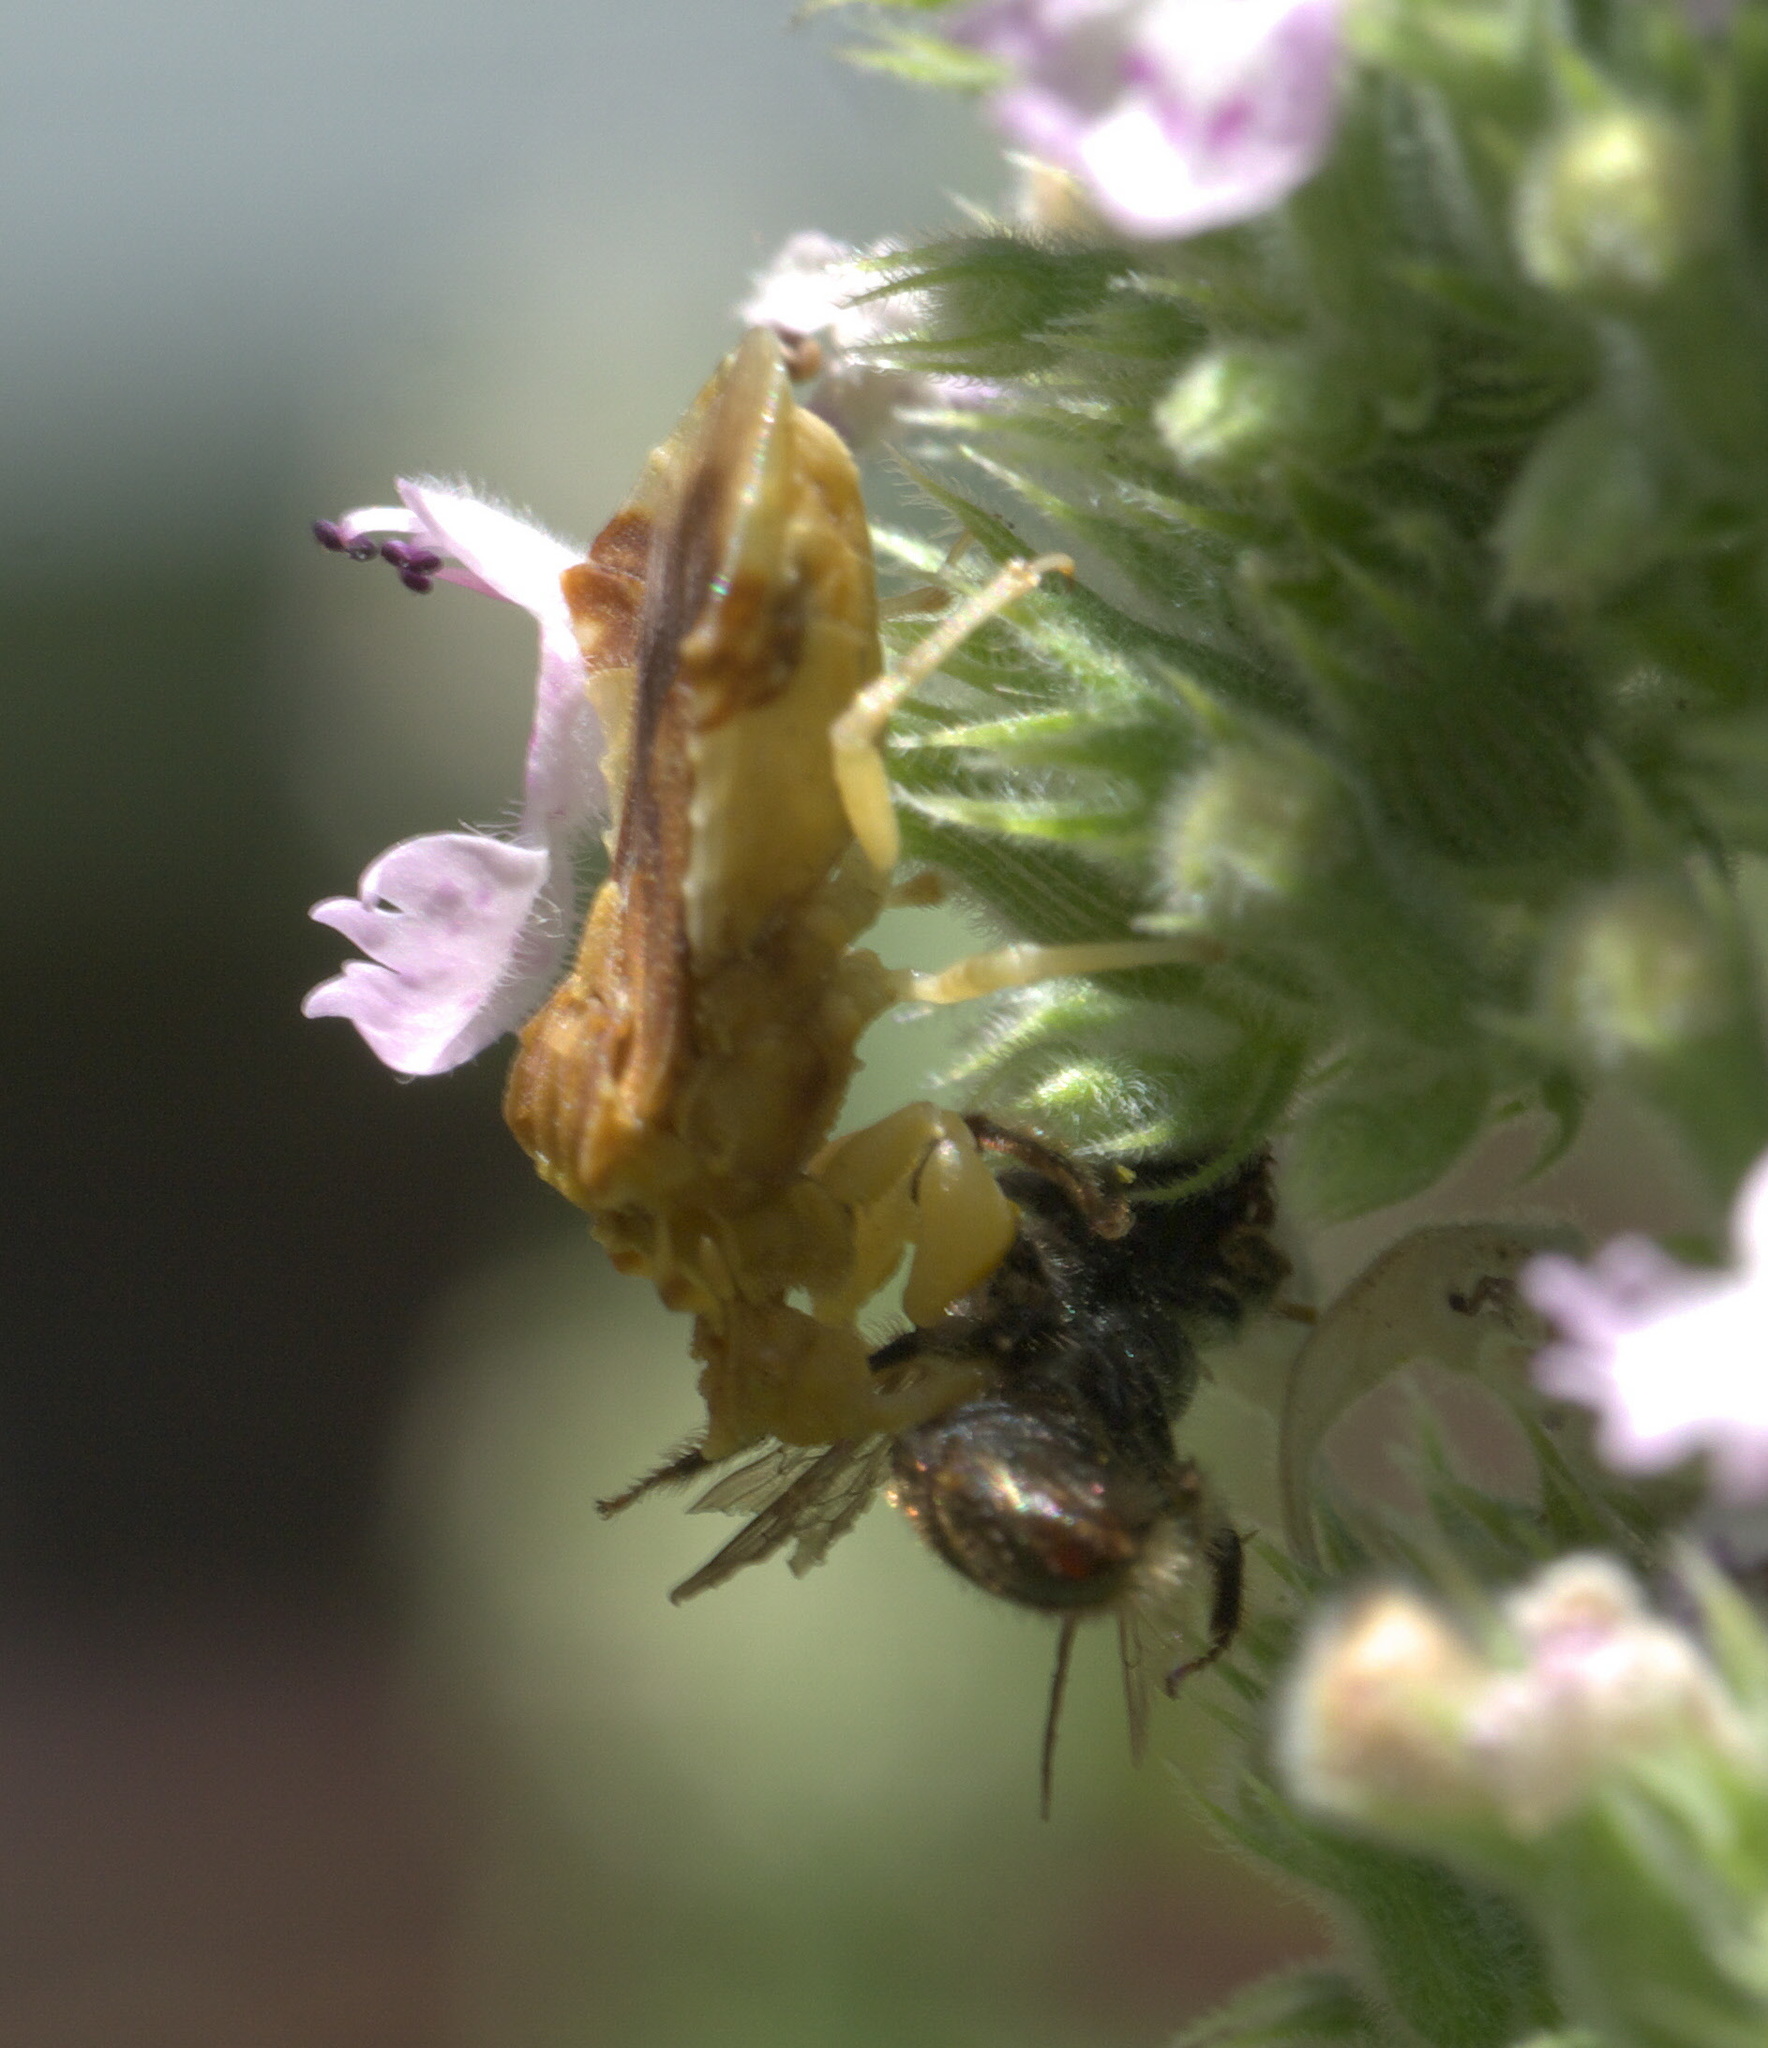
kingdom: Animalia
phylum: Arthropoda
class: Insecta
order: Hemiptera
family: Reduviidae
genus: Phymata
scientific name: Phymata fasciata
